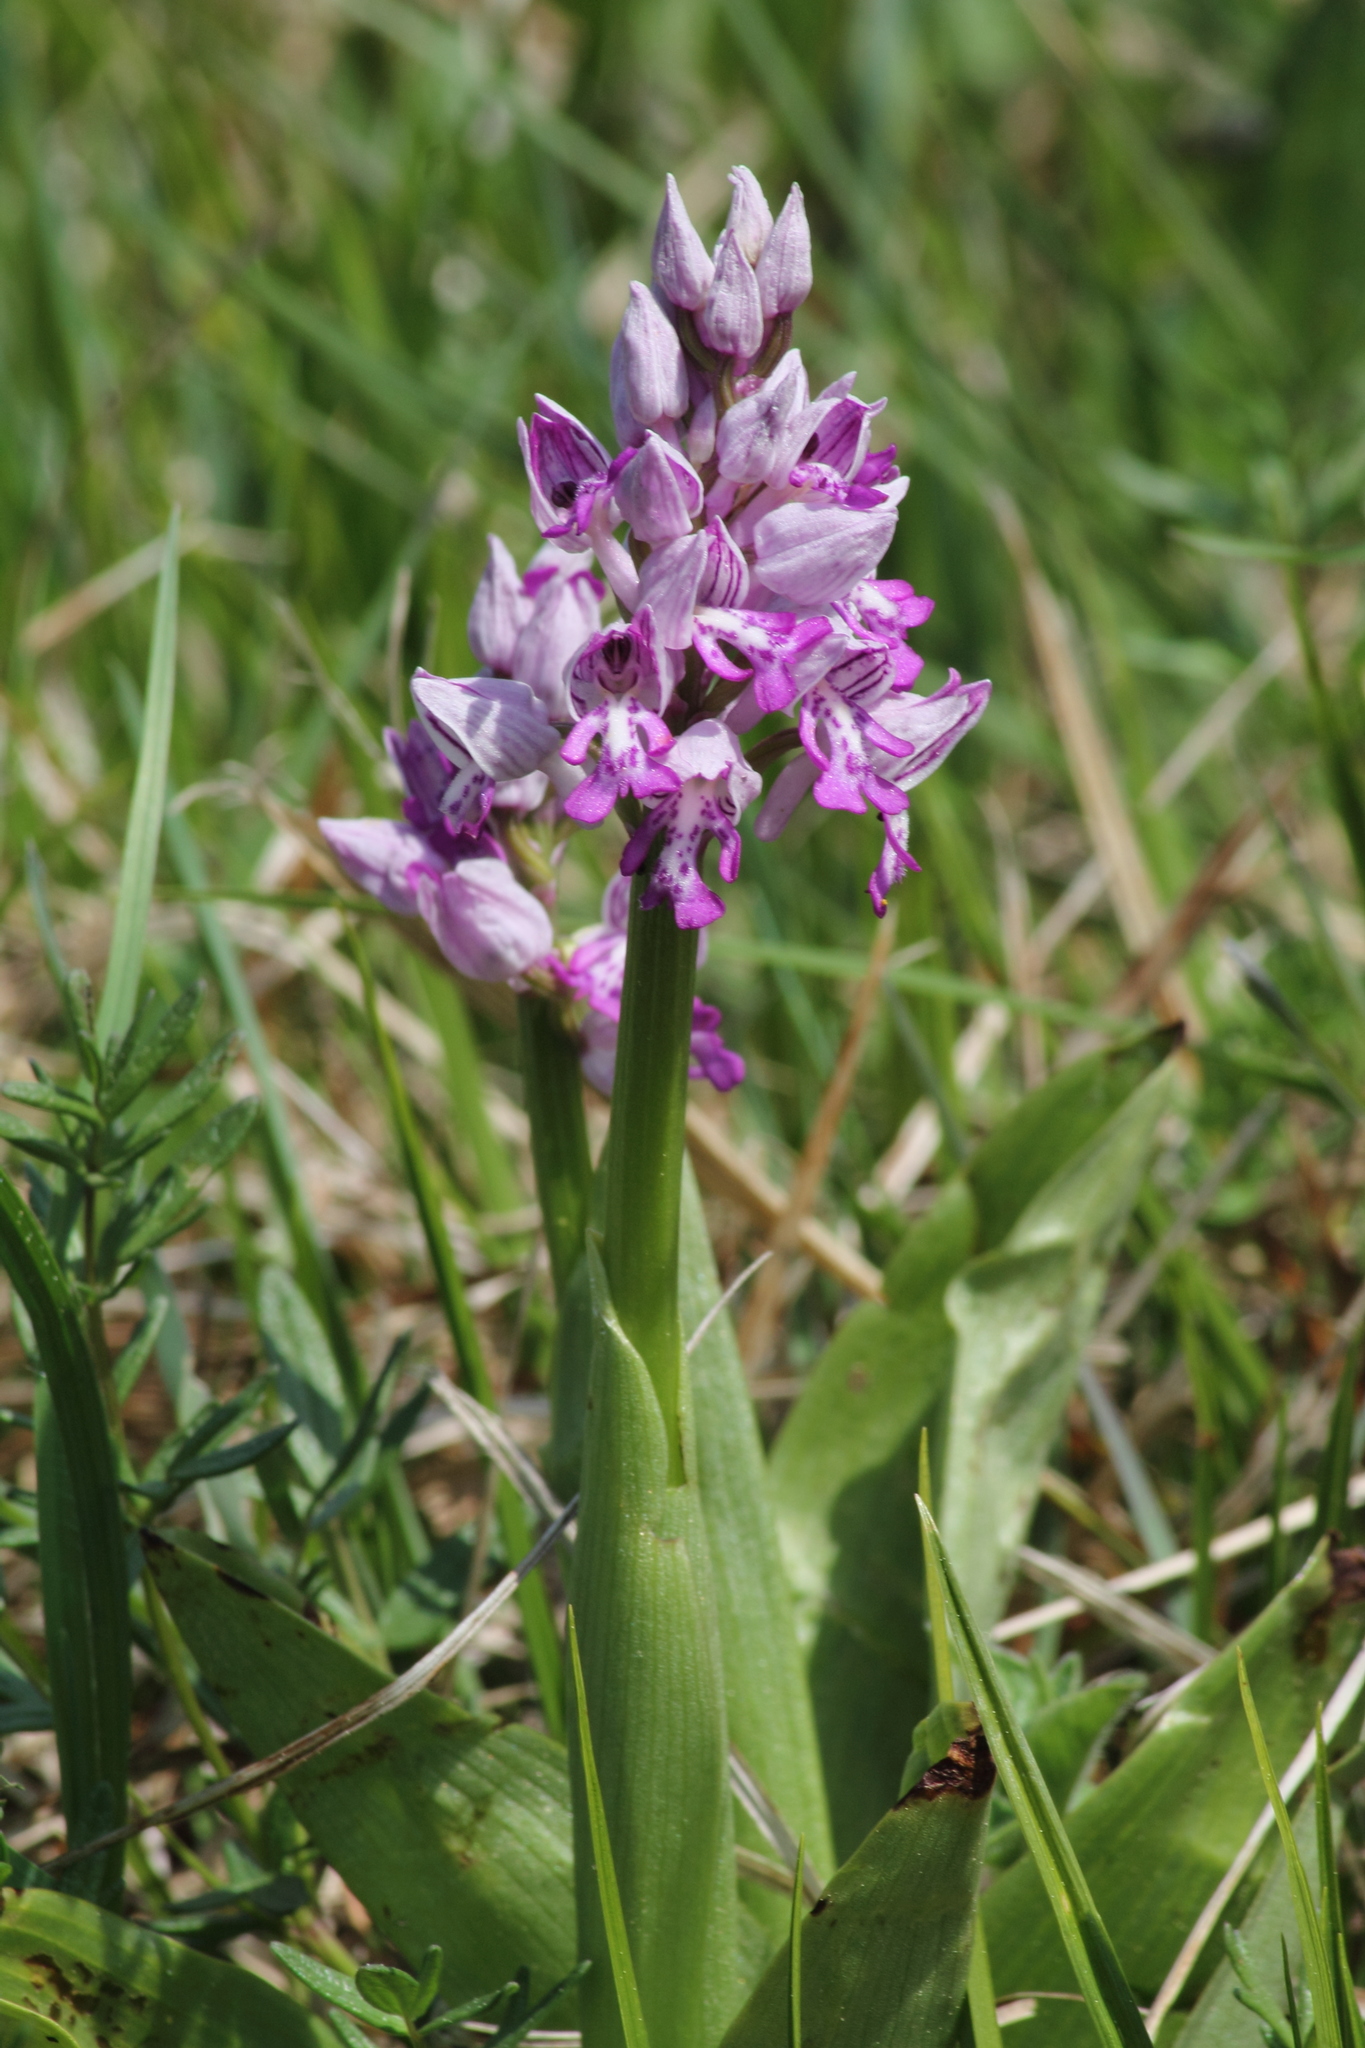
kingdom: Plantae
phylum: Tracheophyta
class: Liliopsida
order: Asparagales
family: Orchidaceae
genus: Orchis
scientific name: Orchis militaris
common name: Military orchid
